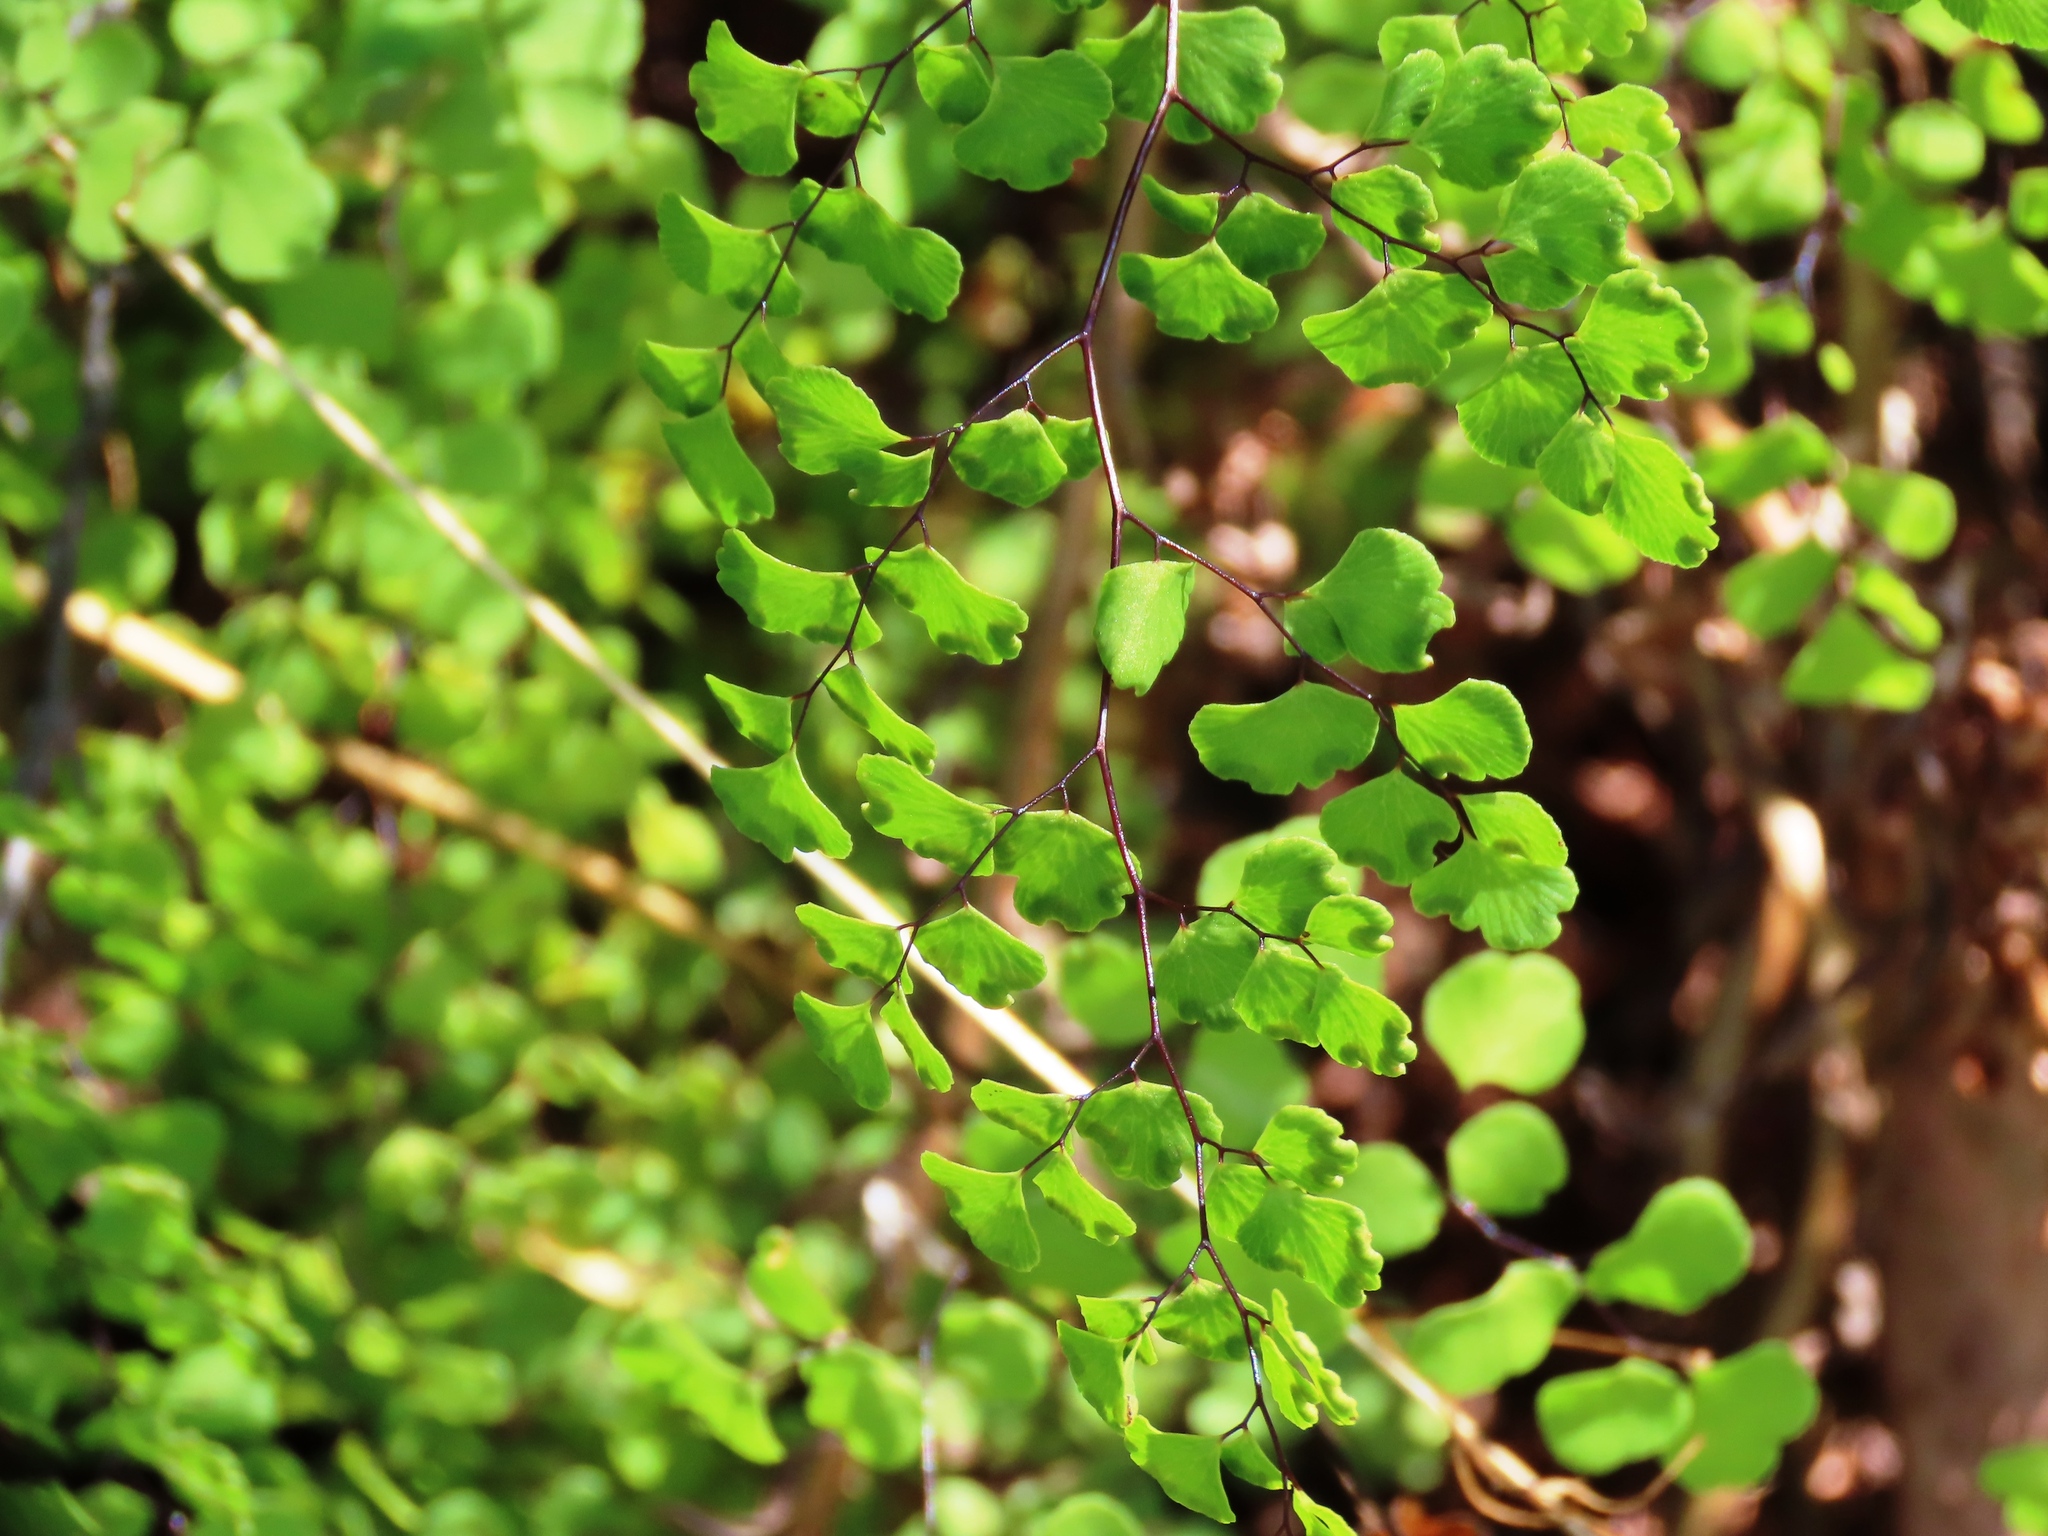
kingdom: Plantae
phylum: Tracheophyta
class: Polypodiopsida
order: Polypodiales
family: Pteridaceae
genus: Adiantum
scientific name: Adiantum aethiopicum
